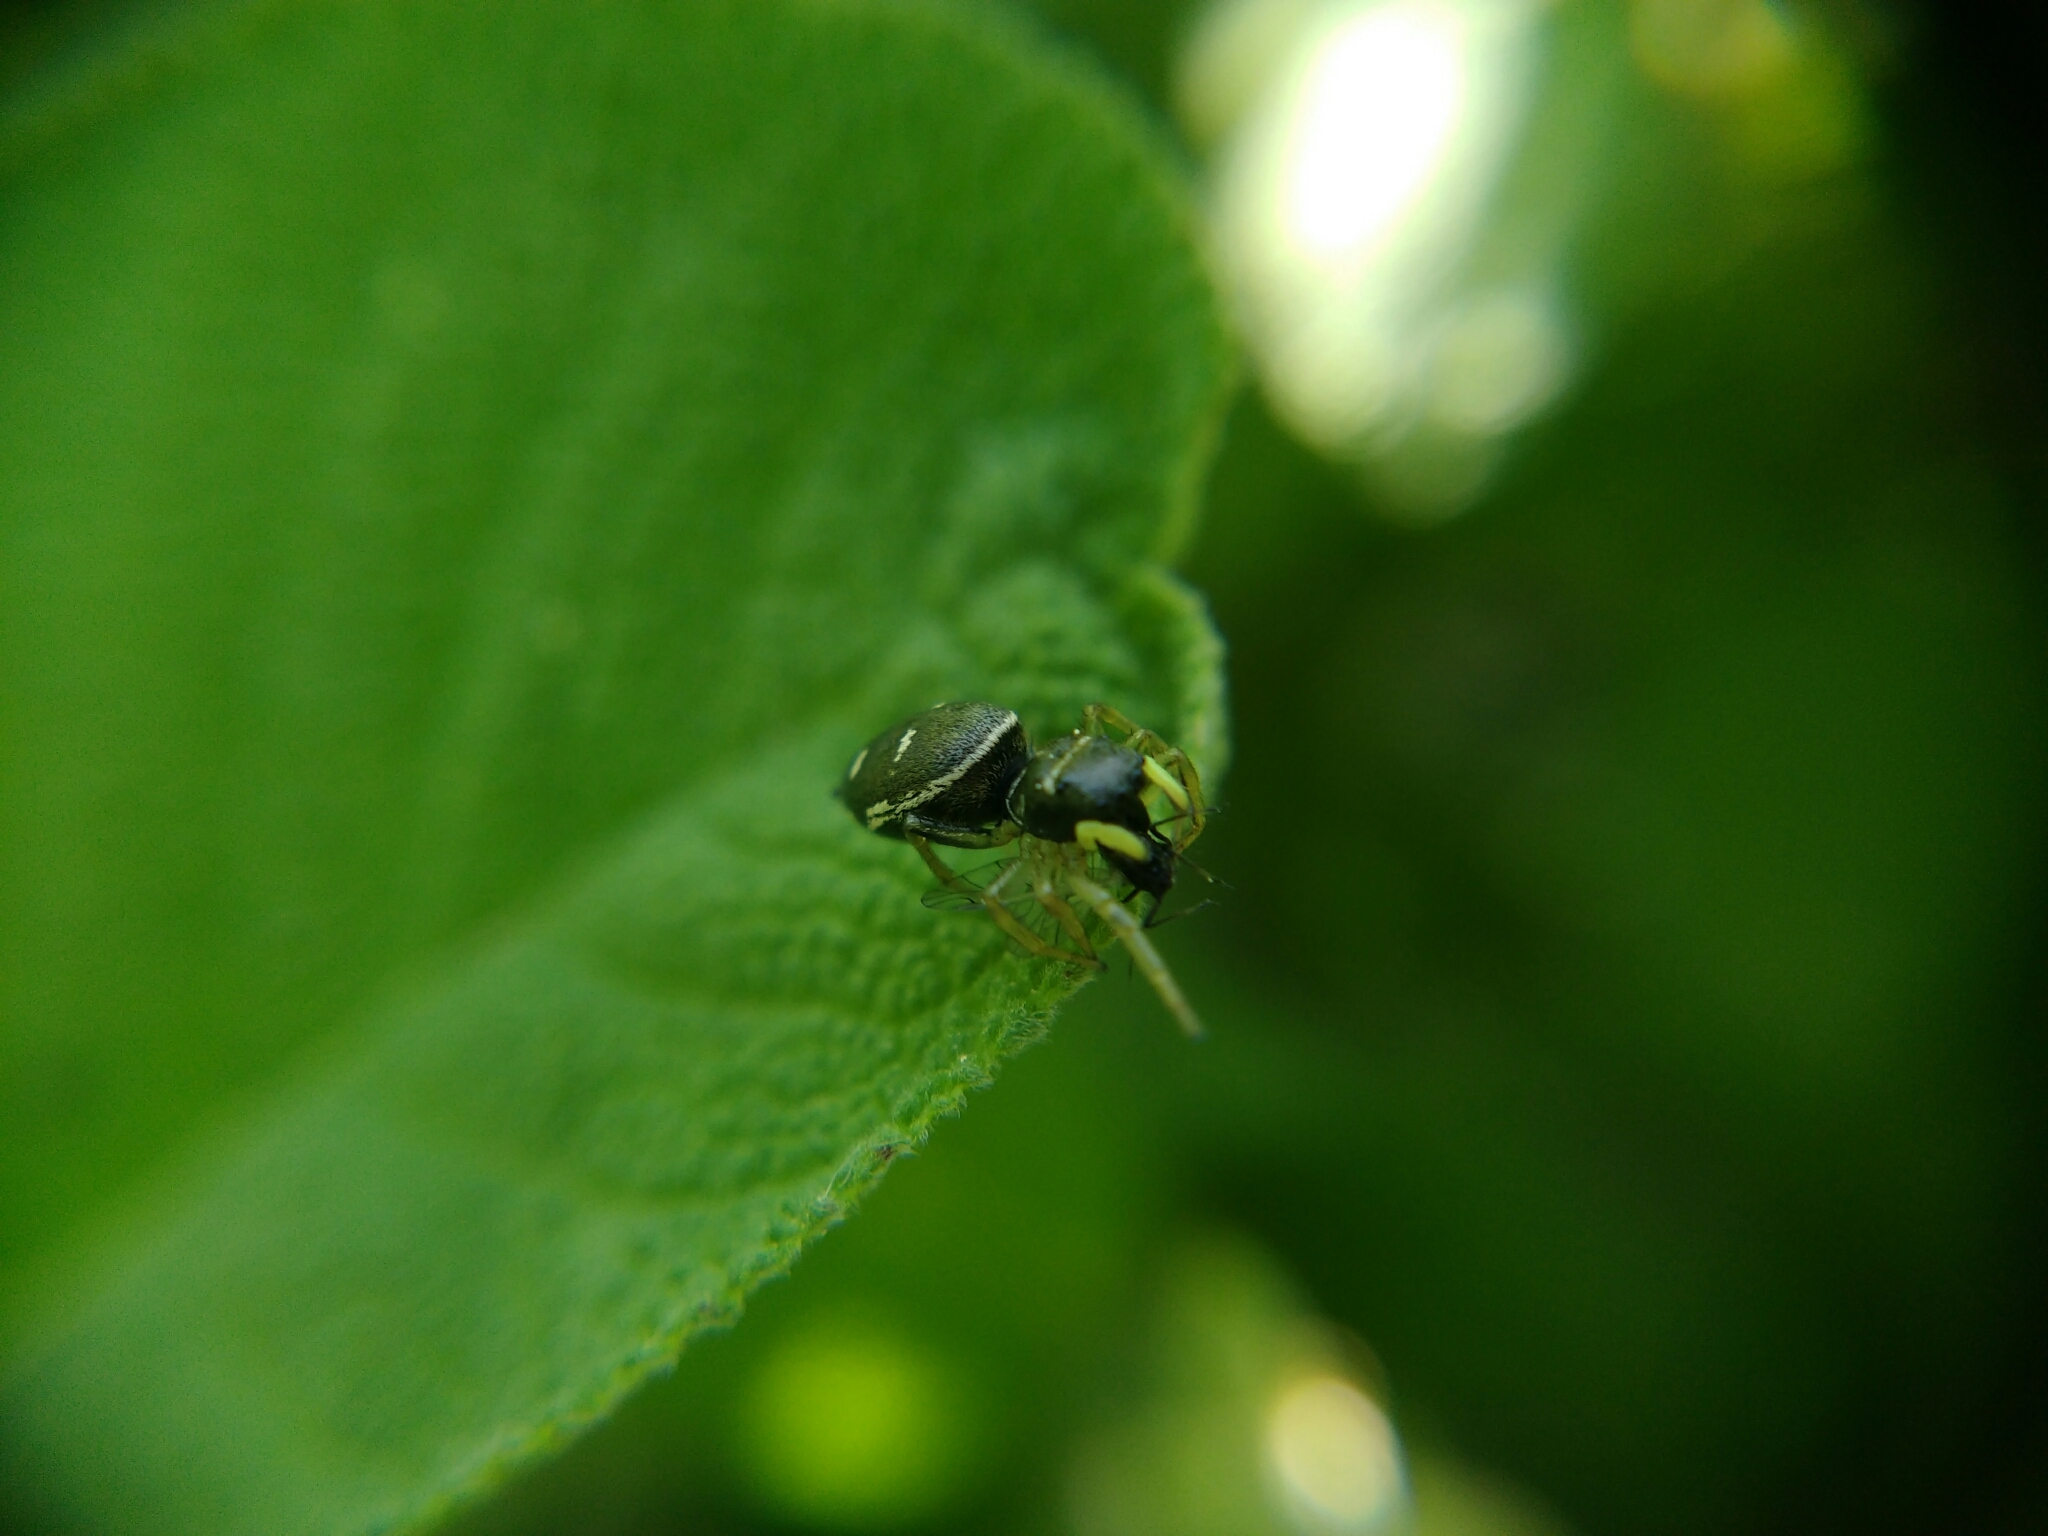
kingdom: Animalia
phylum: Arthropoda
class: Arachnida
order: Araneae
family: Salticidae
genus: Heliophanus
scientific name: Heliophanus cupreus
